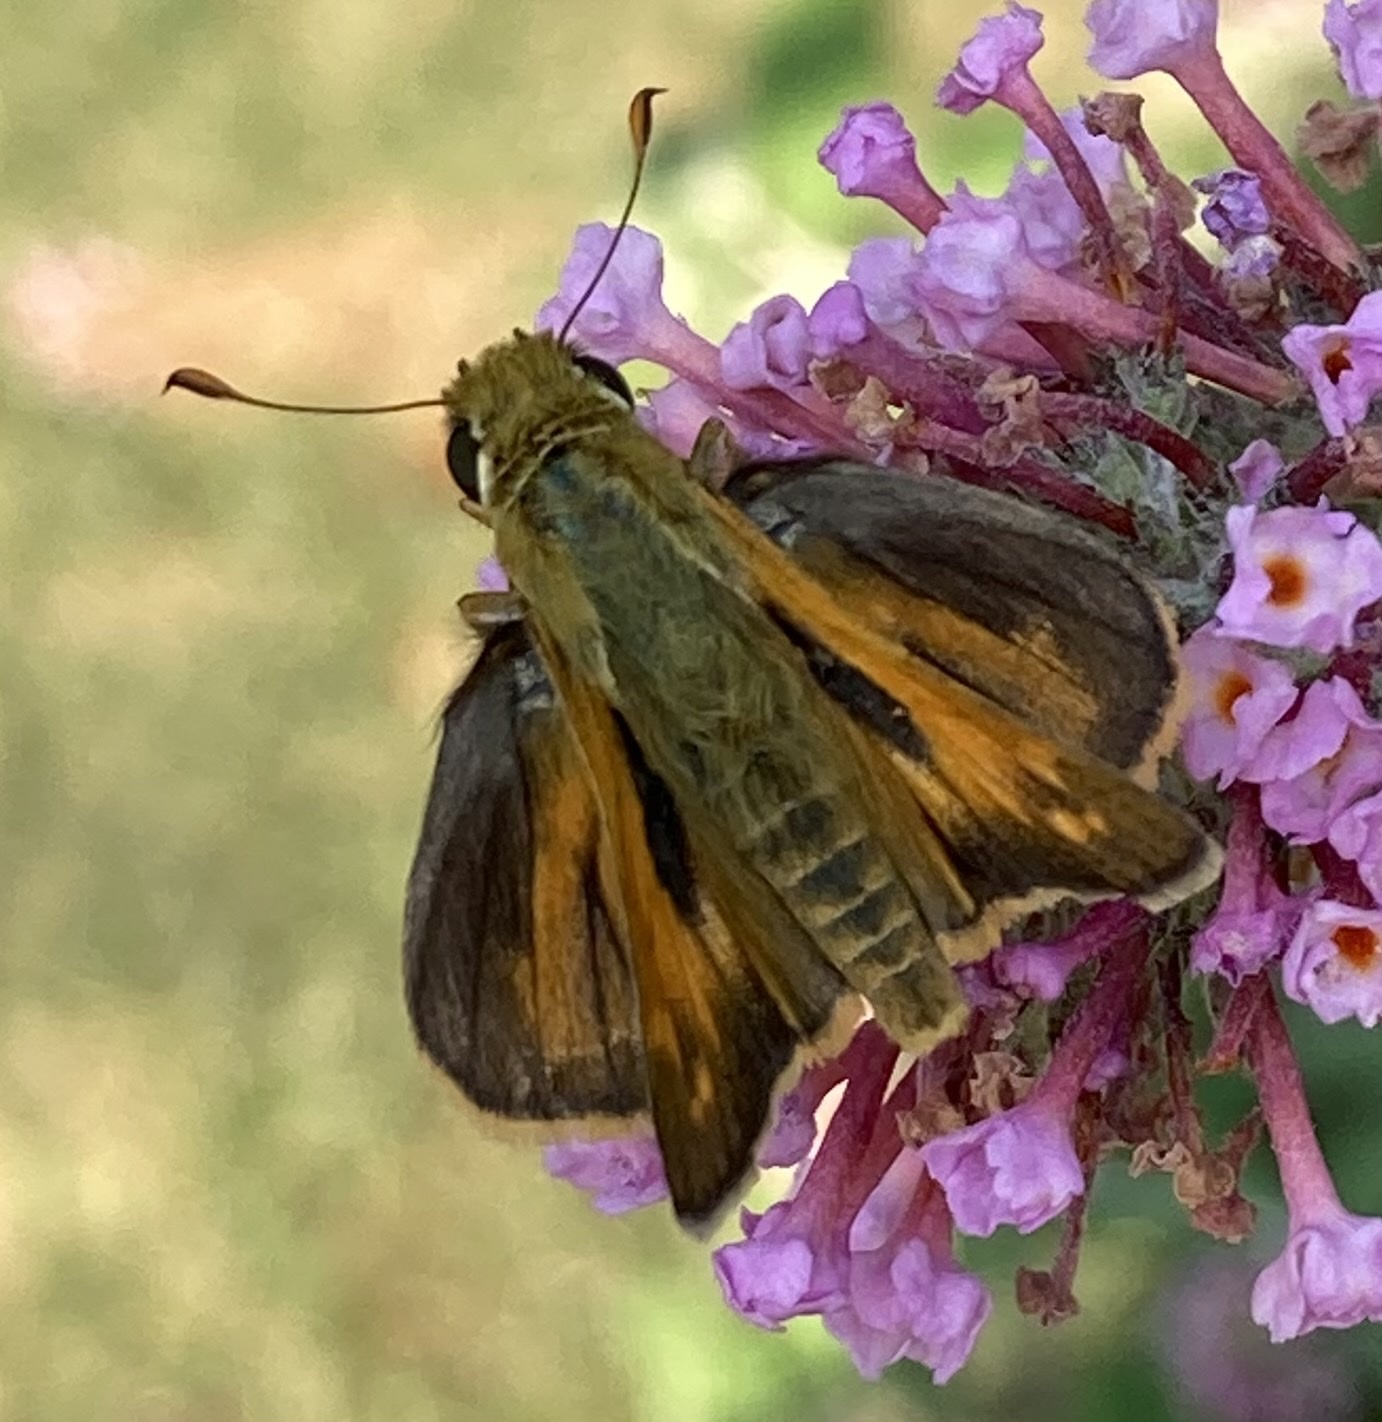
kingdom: Animalia
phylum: Arthropoda
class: Insecta
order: Lepidoptera
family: Hesperiidae
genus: Atalopedes
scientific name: Atalopedes
